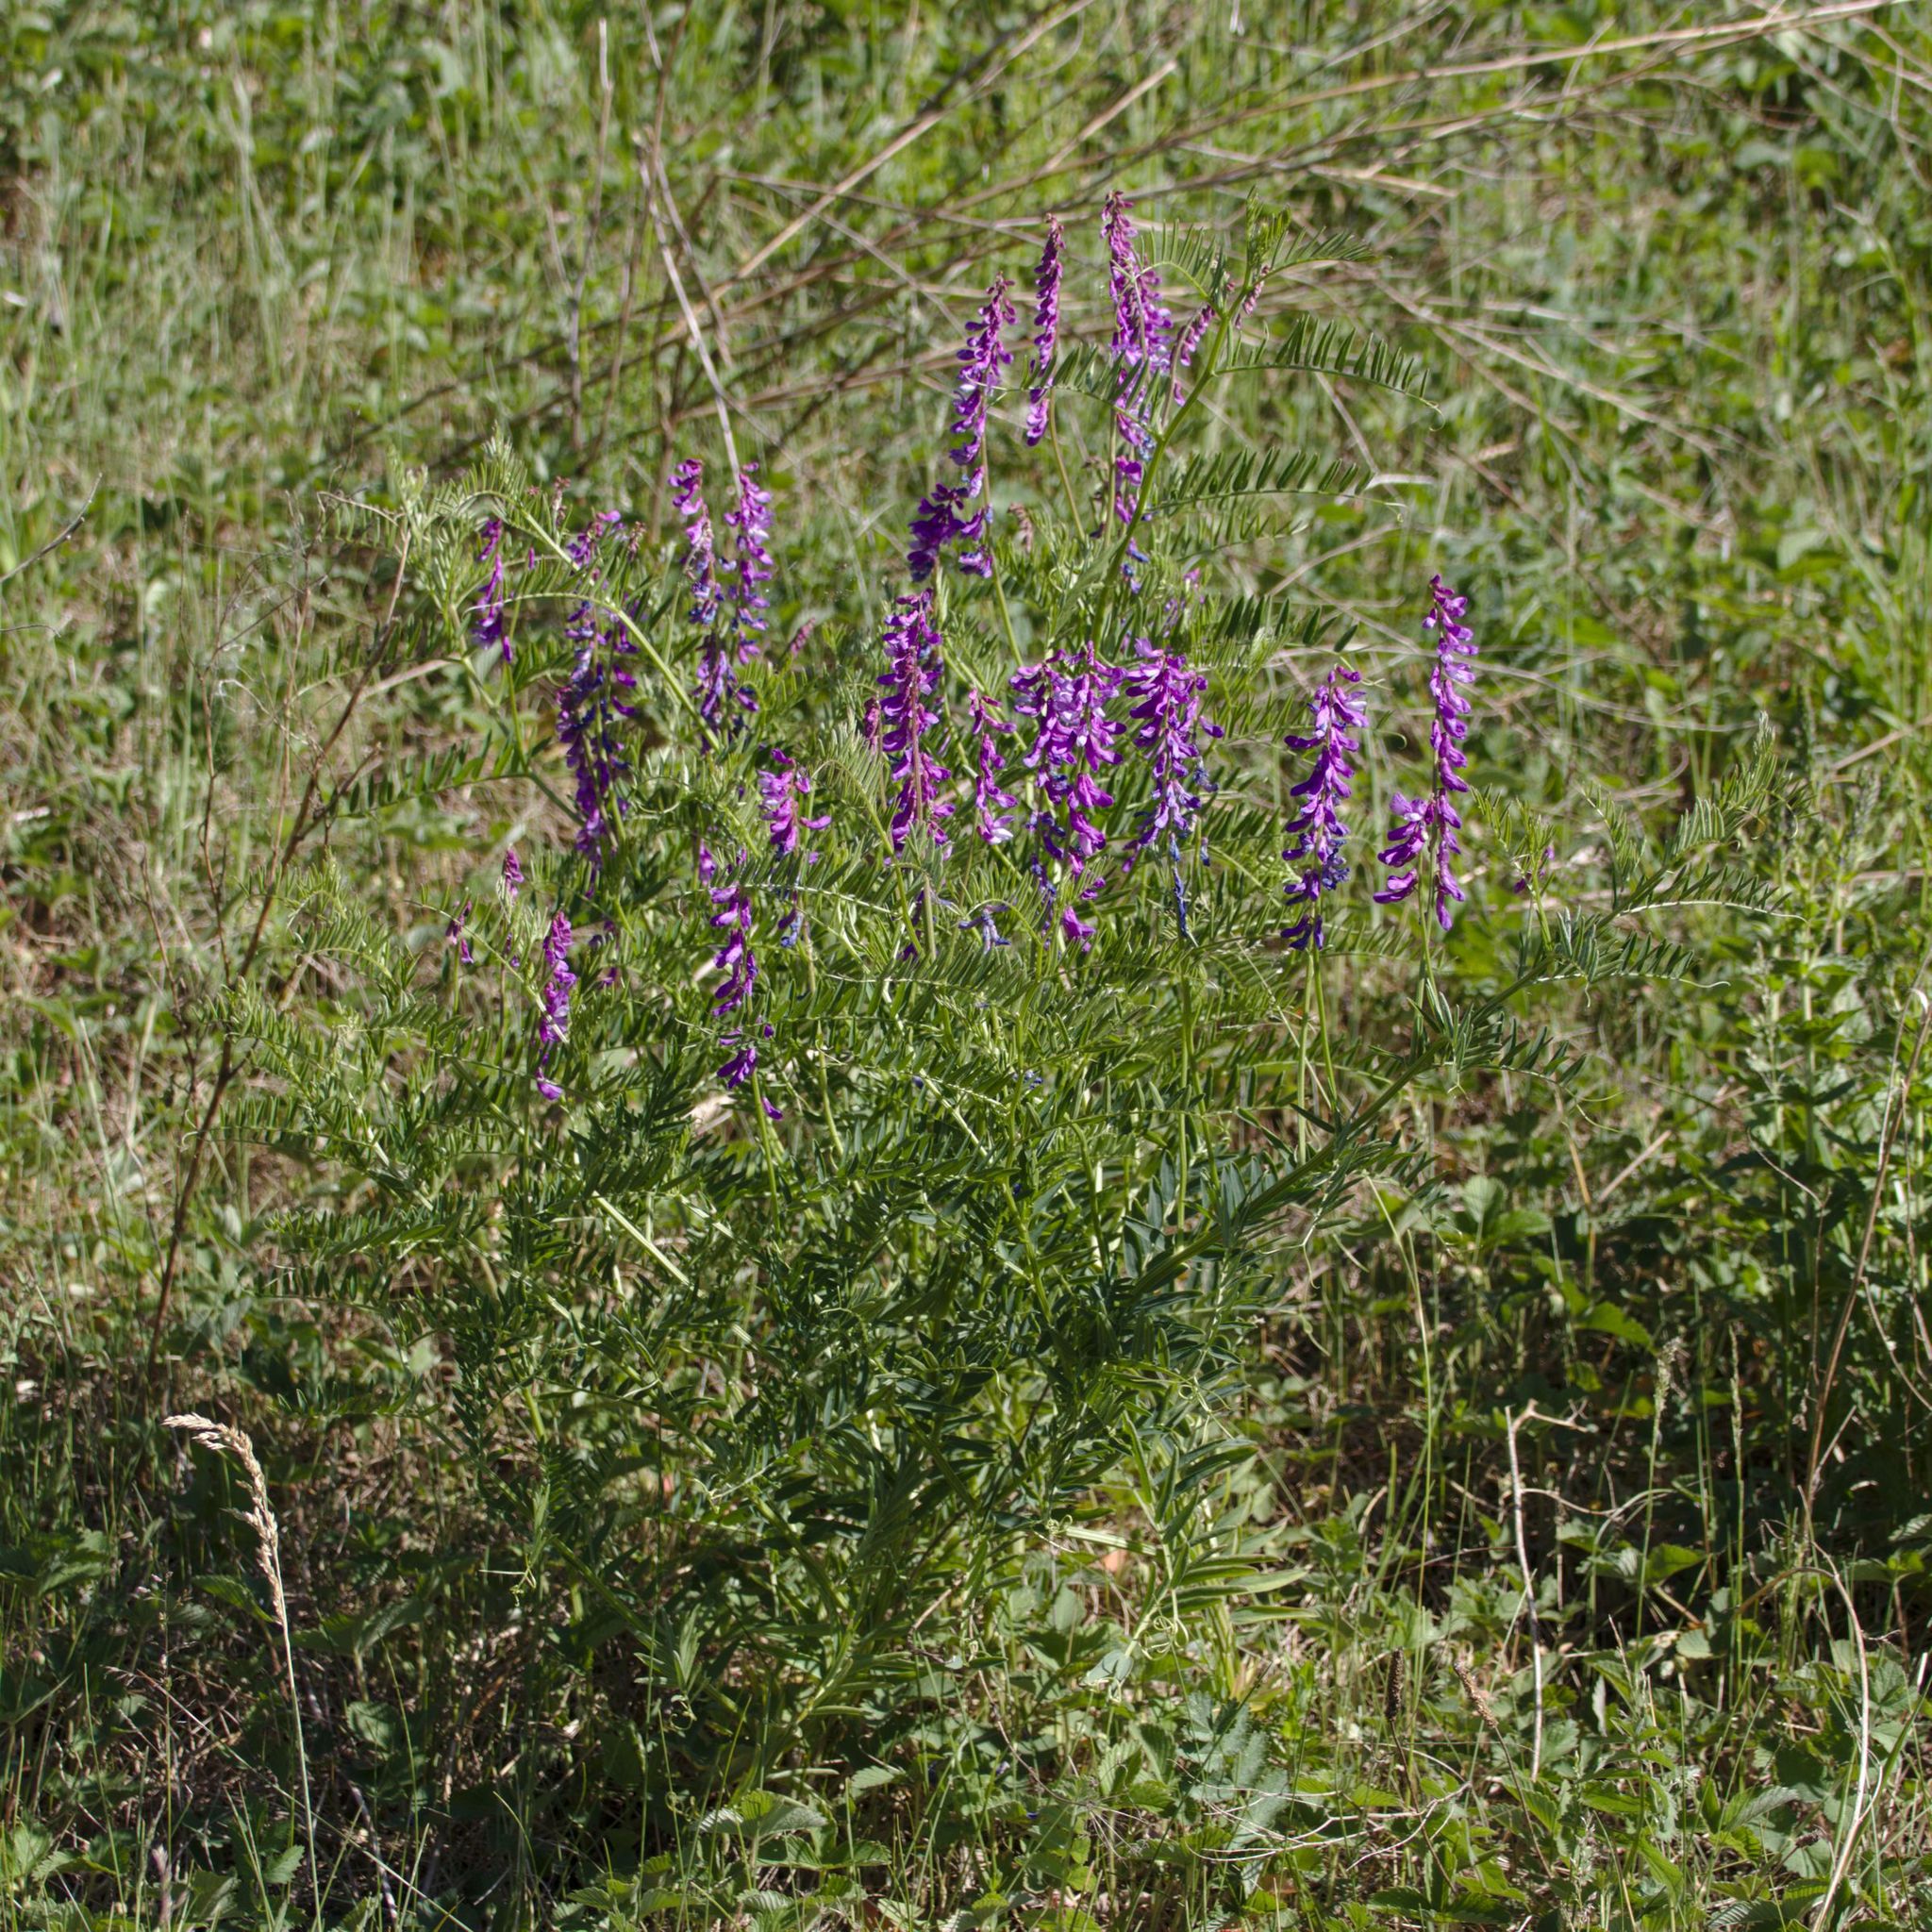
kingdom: Plantae
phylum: Tracheophyta
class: Magnoliopsida
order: Fabales
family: Fabaceae
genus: Vicia
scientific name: Vicia tenuifolia
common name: Fine-leaved vetch
